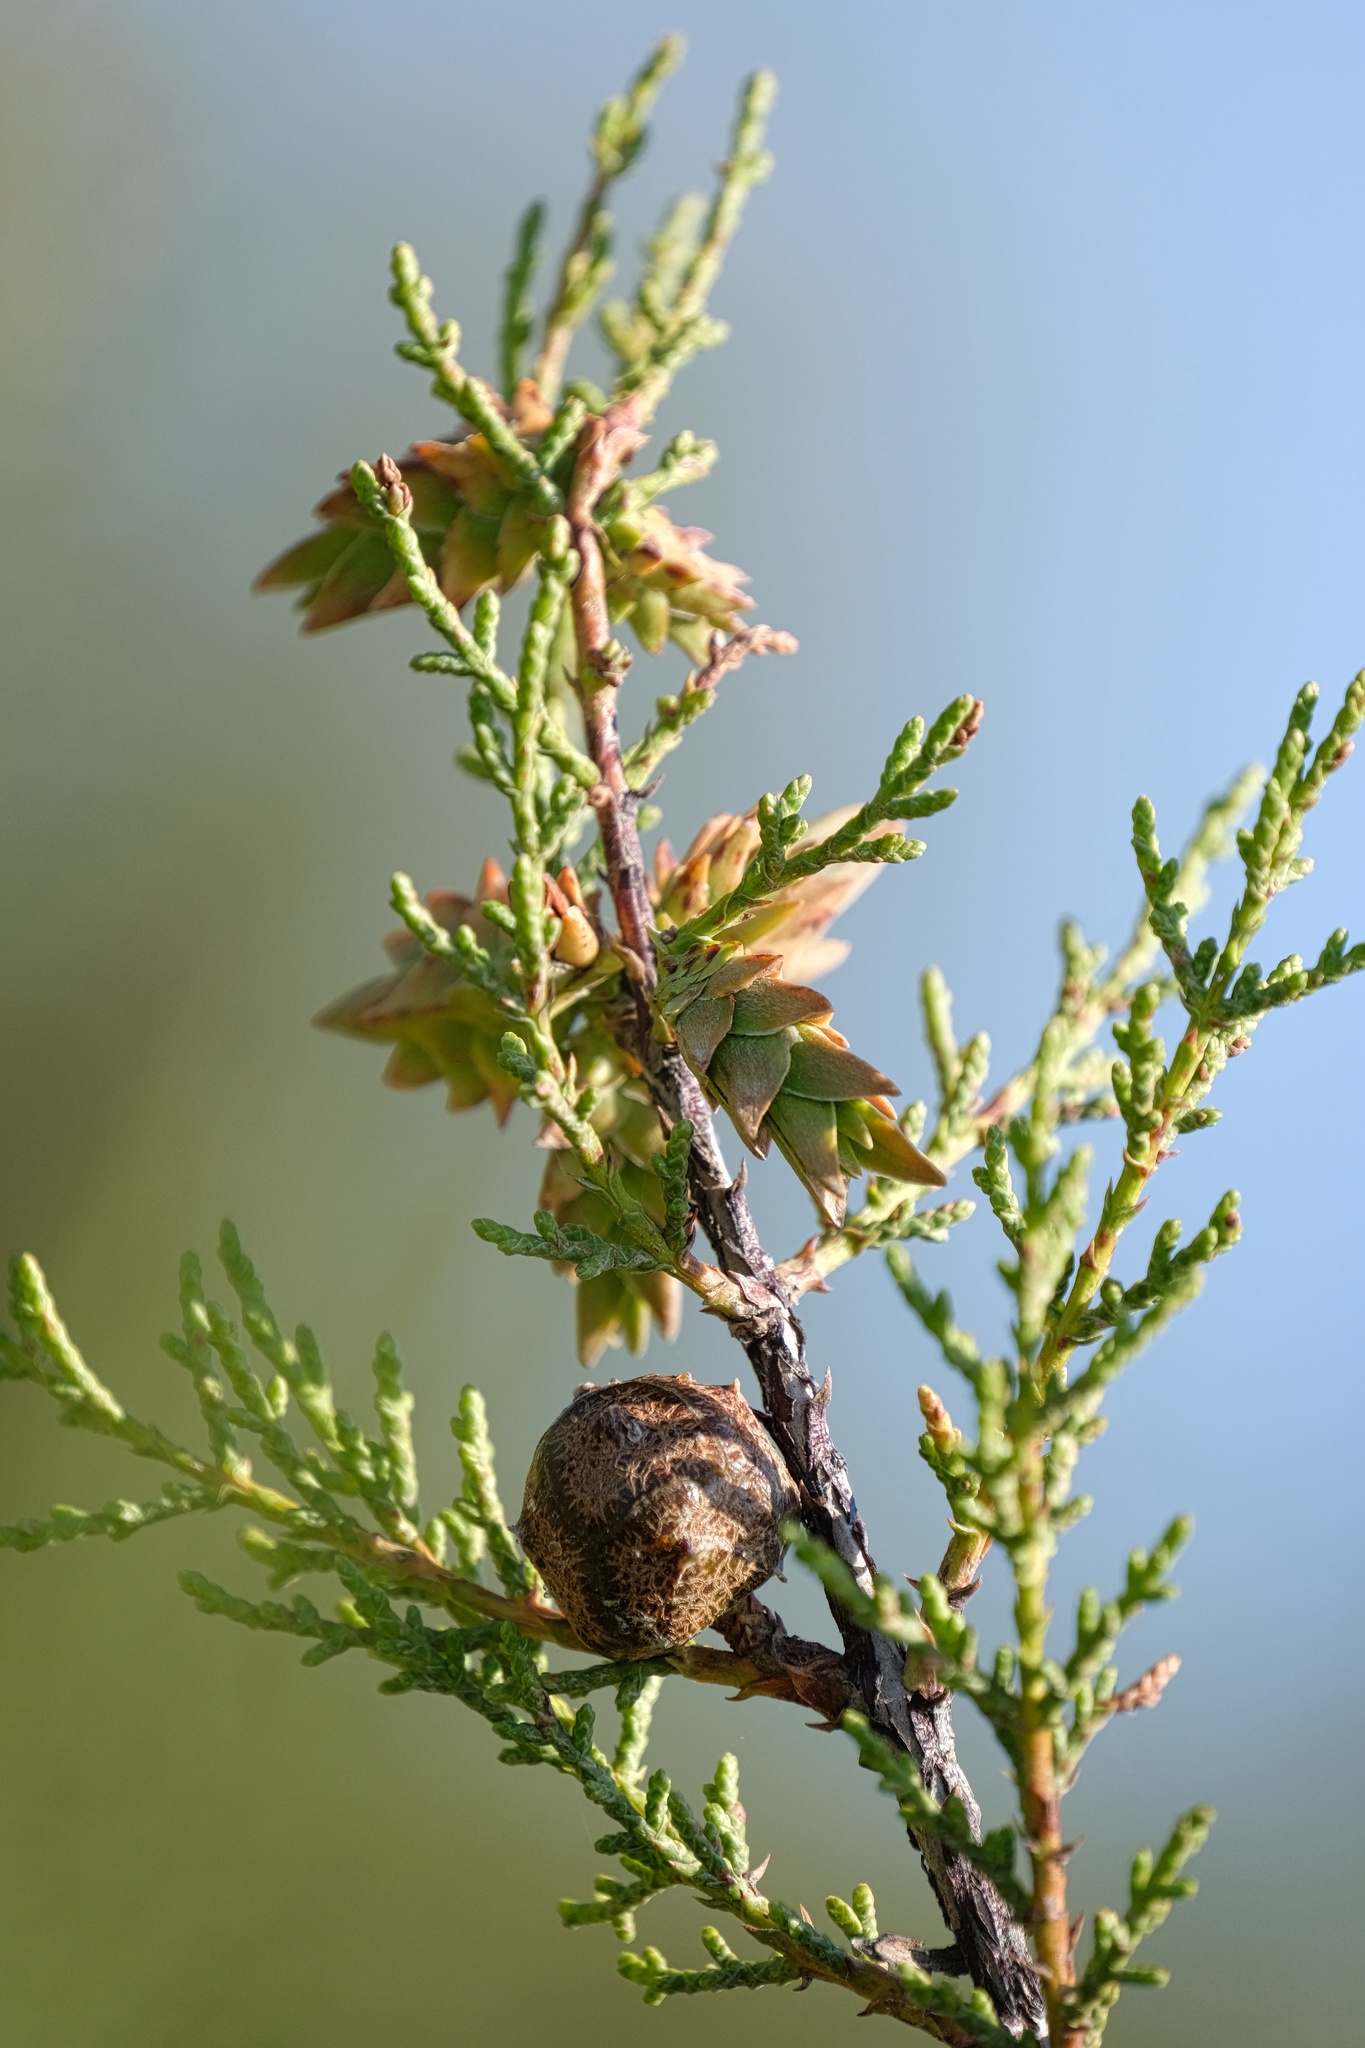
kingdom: Animalia
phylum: Arthropoda
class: Insecta
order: Diptera
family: Cecidomyiidae
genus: Oligotrophus
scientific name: Oligotrophus cupressi
